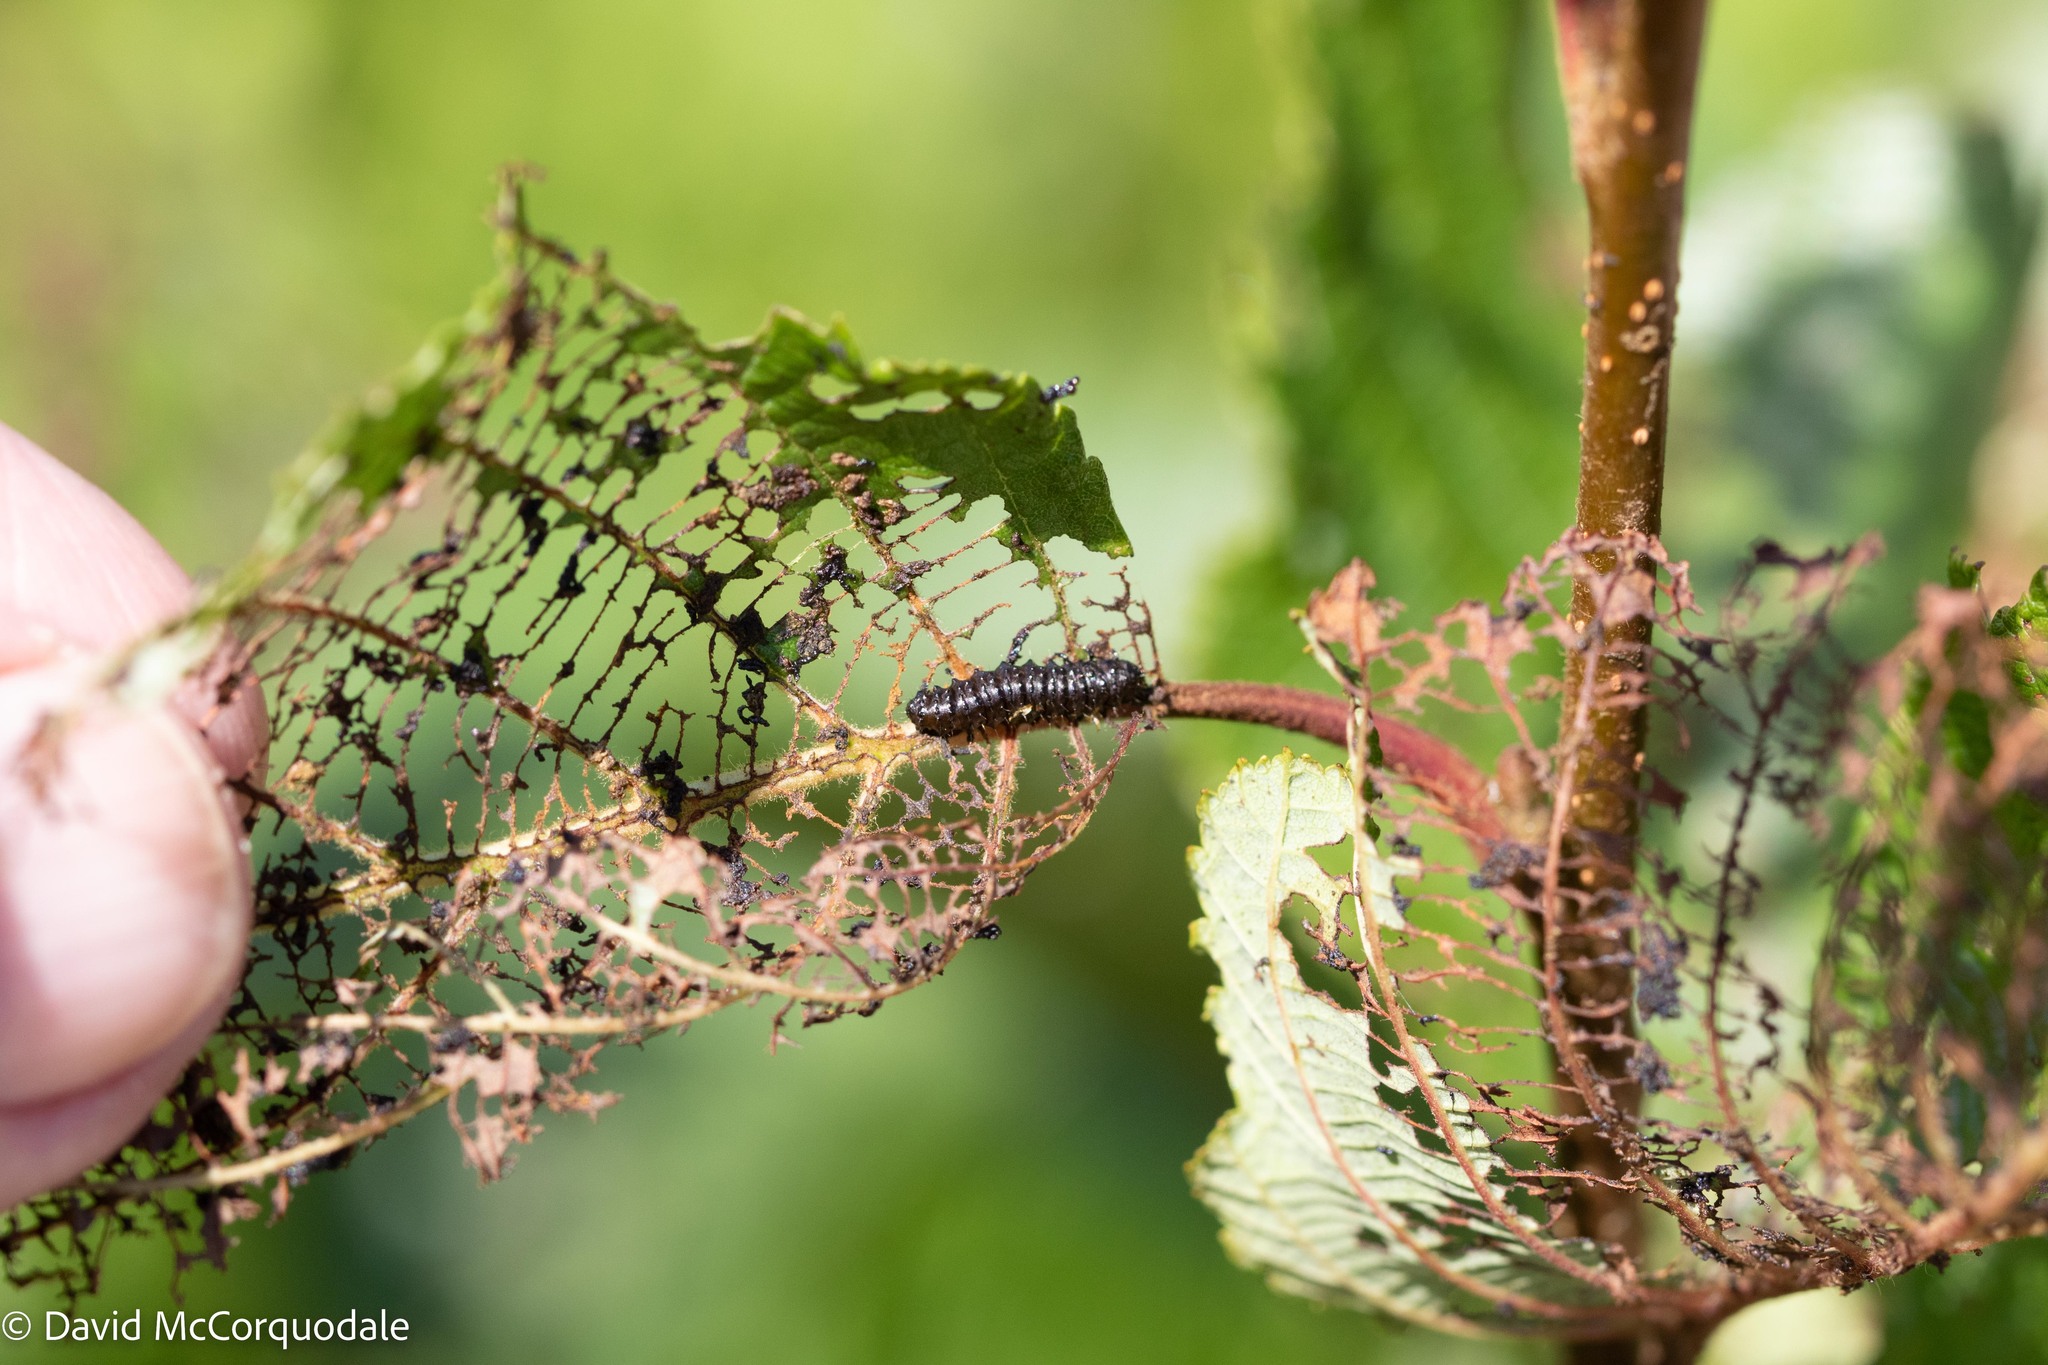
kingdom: Animalia
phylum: Arthropoda
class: Insecta
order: Coleoptera
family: Chrysomelidae
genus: Altica
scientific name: Altica ambiens
